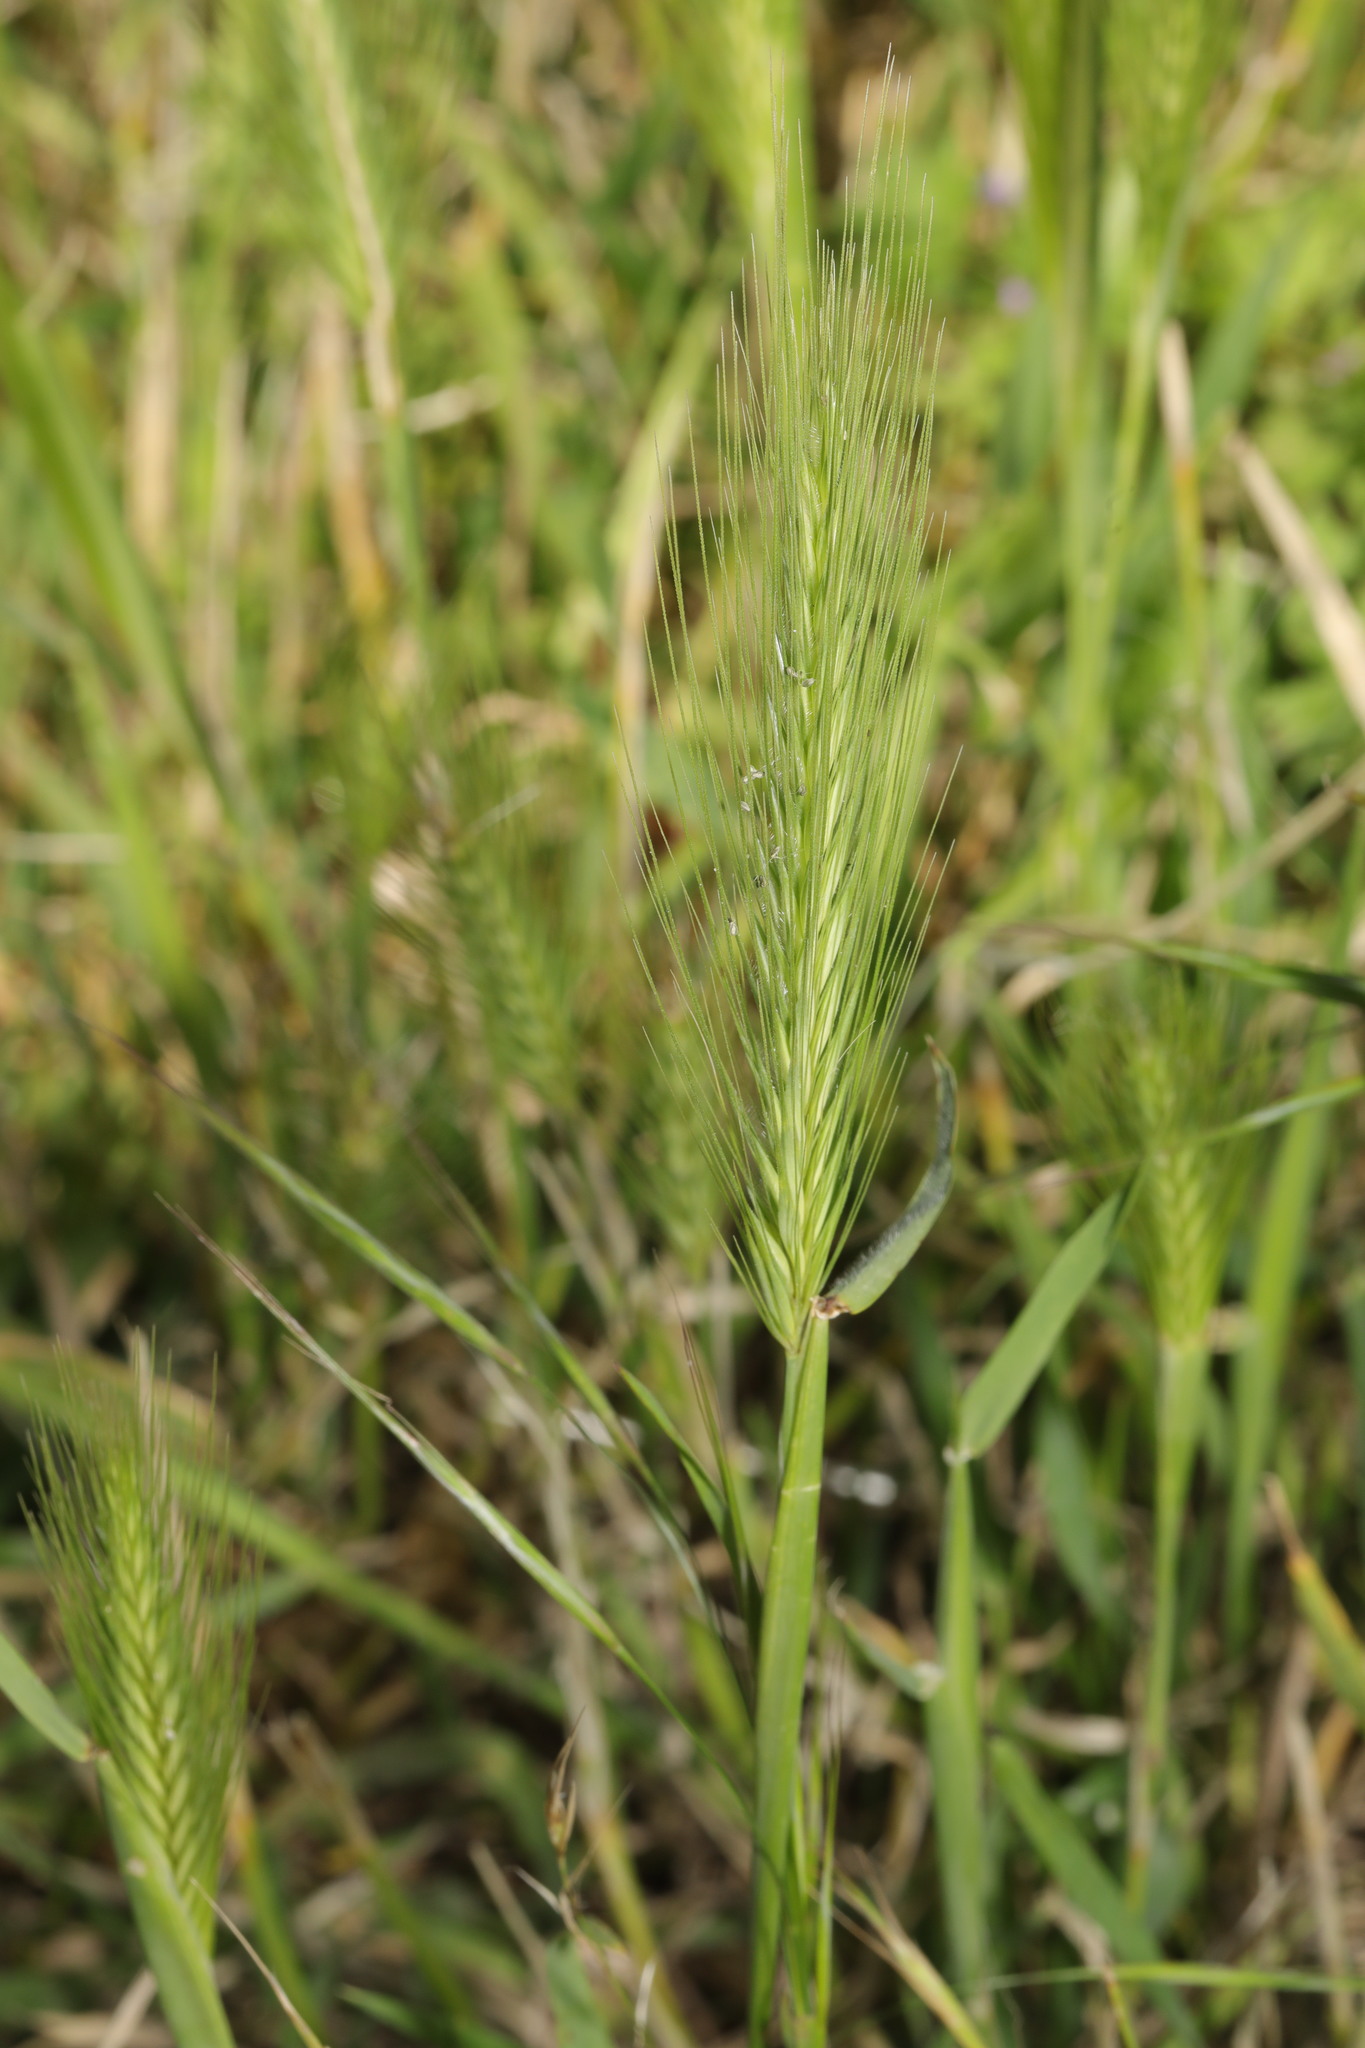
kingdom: Plantae
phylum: Tracheophyta
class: Liliopsida
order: Poales
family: Poaceae
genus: Hordeum
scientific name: Hordeum murinum
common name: Wall barley
